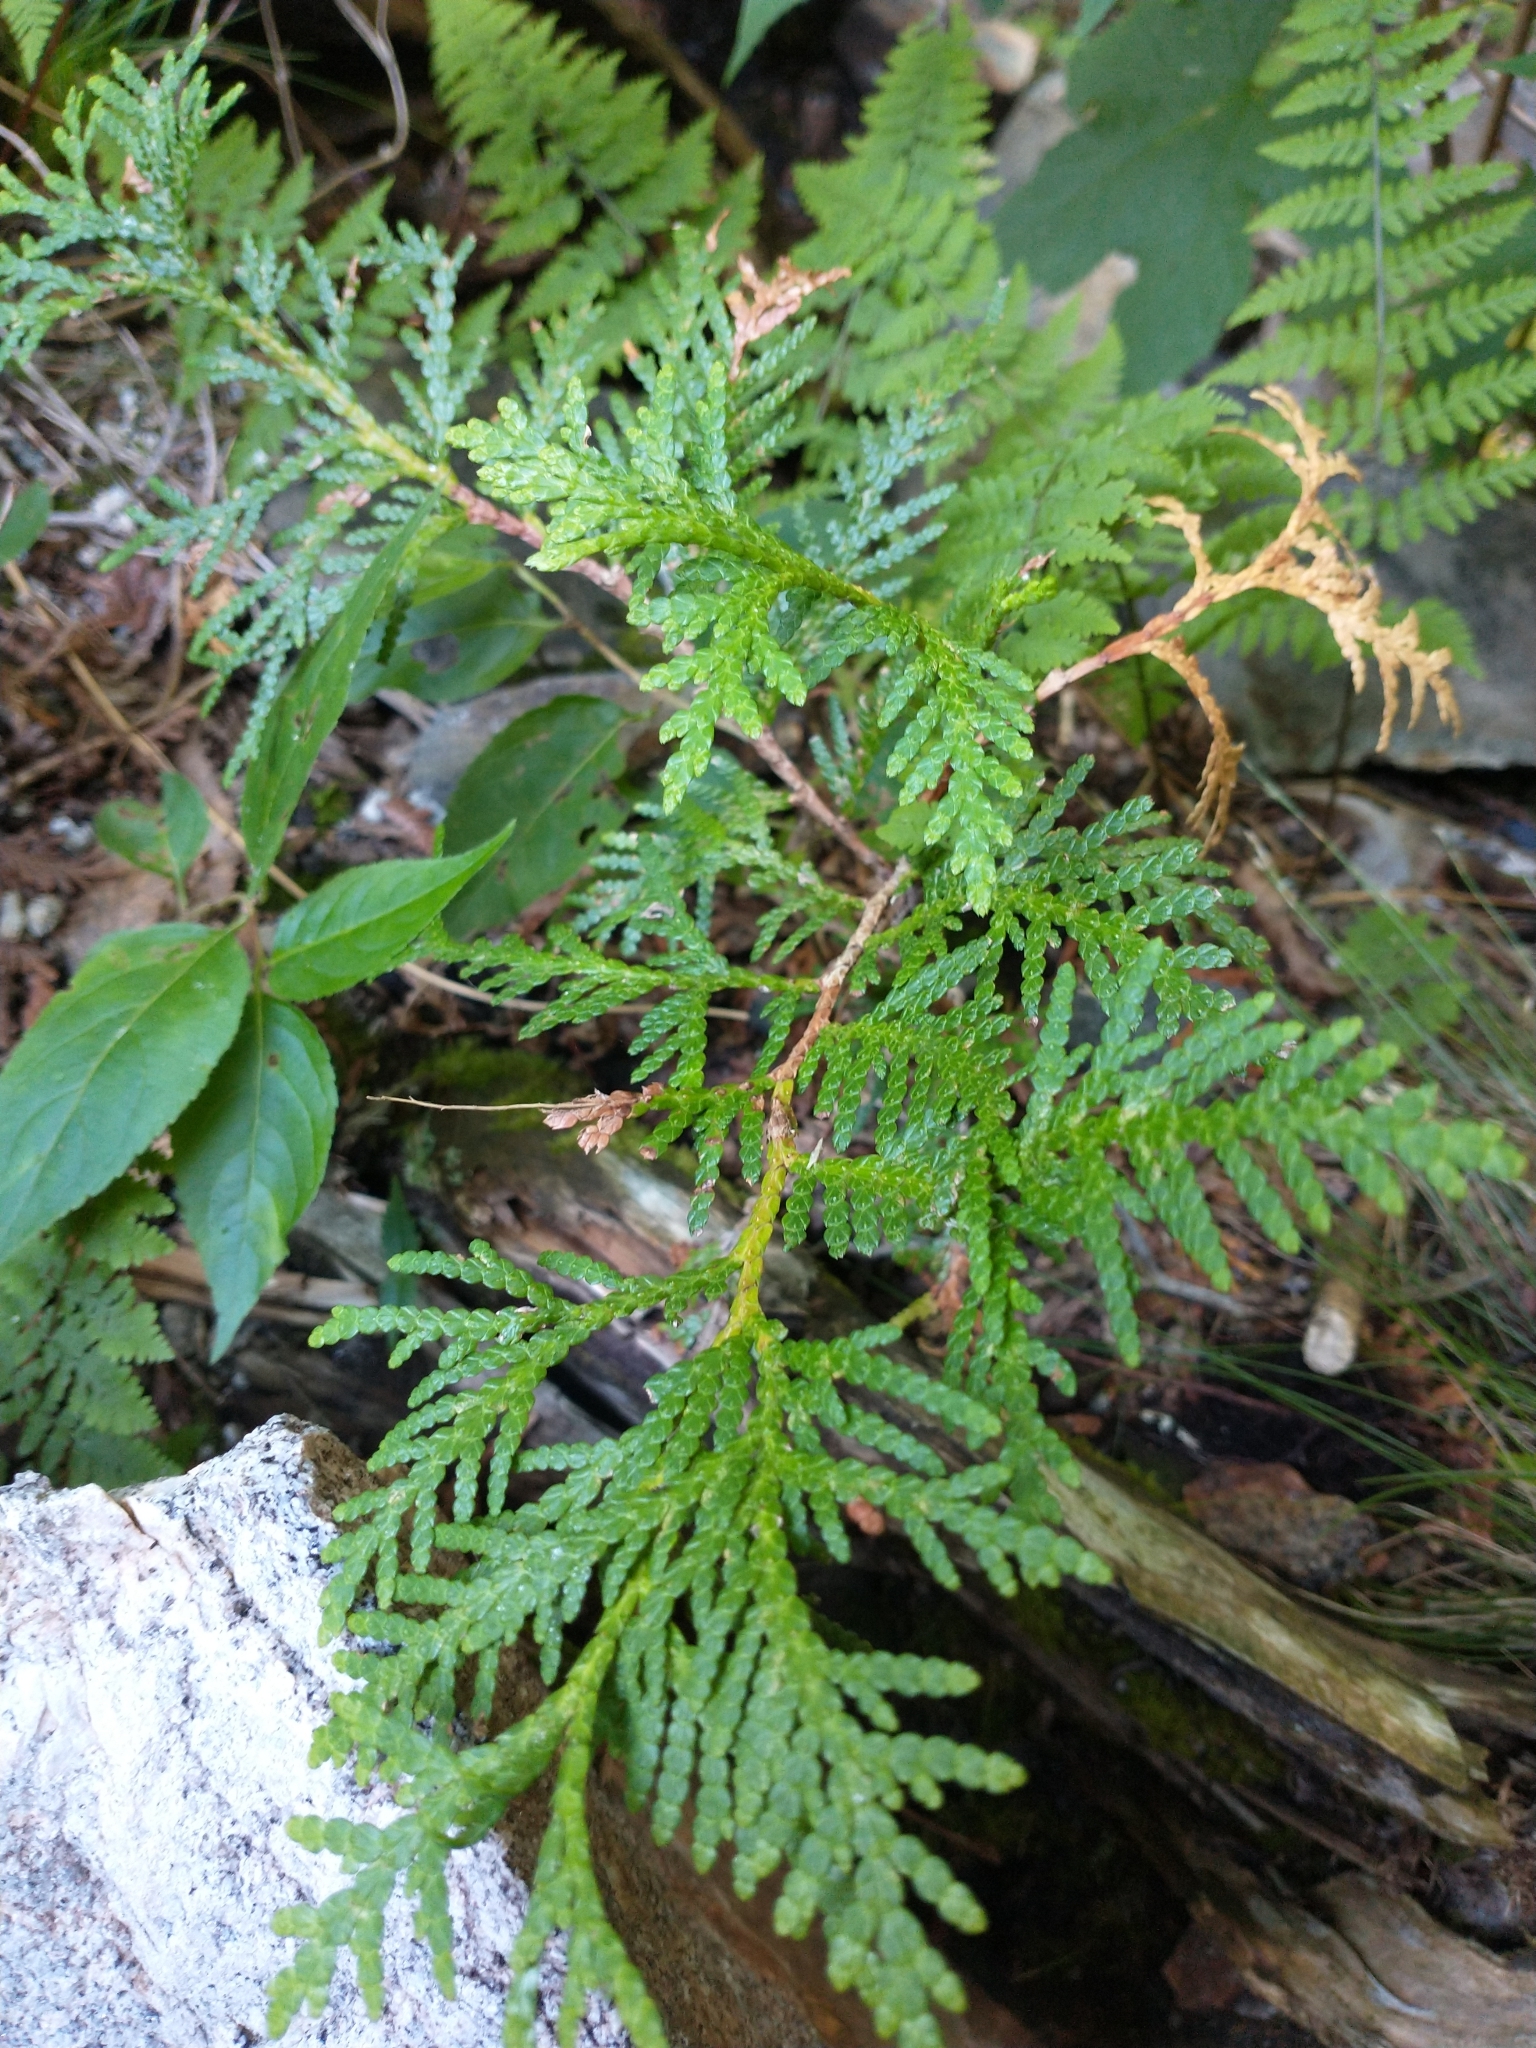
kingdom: Plantae
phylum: Tracheophyta
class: Pinopsida
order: Pinales
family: Cupressaceae
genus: Thuja
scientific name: Thuja occidentalis
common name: Northern white-cedar
